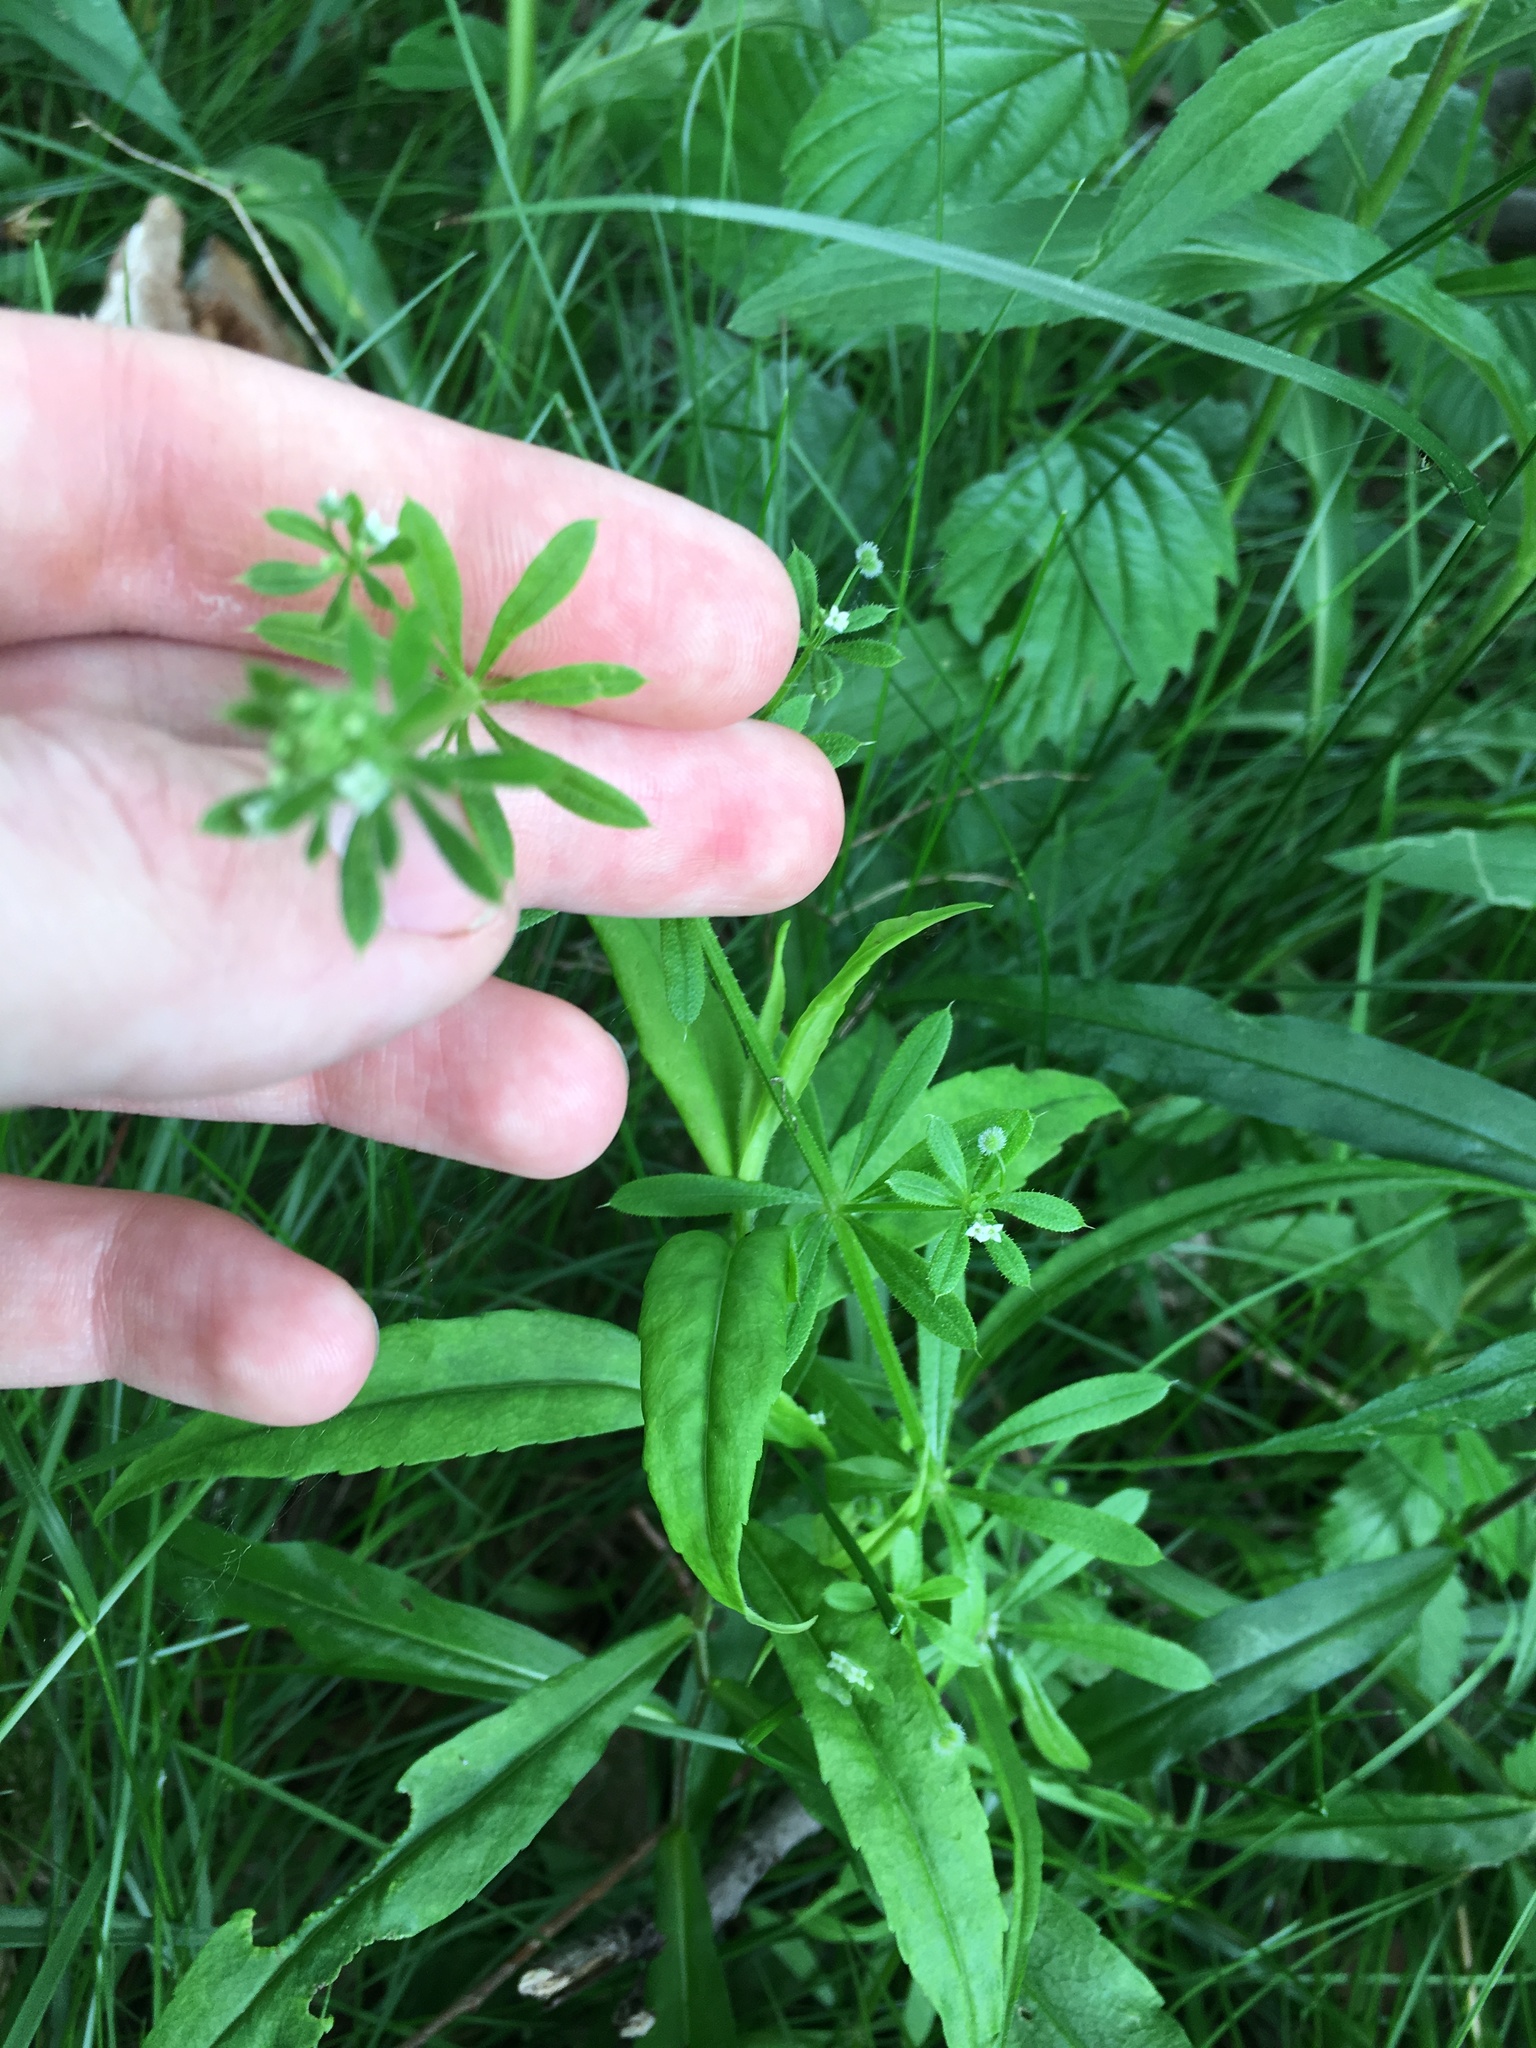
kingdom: Plantae
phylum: Tracheophyta
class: Magnoliopsida
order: Gentianales
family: Rubiaceae
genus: Galium
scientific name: Galium aparine
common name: Cleavers
